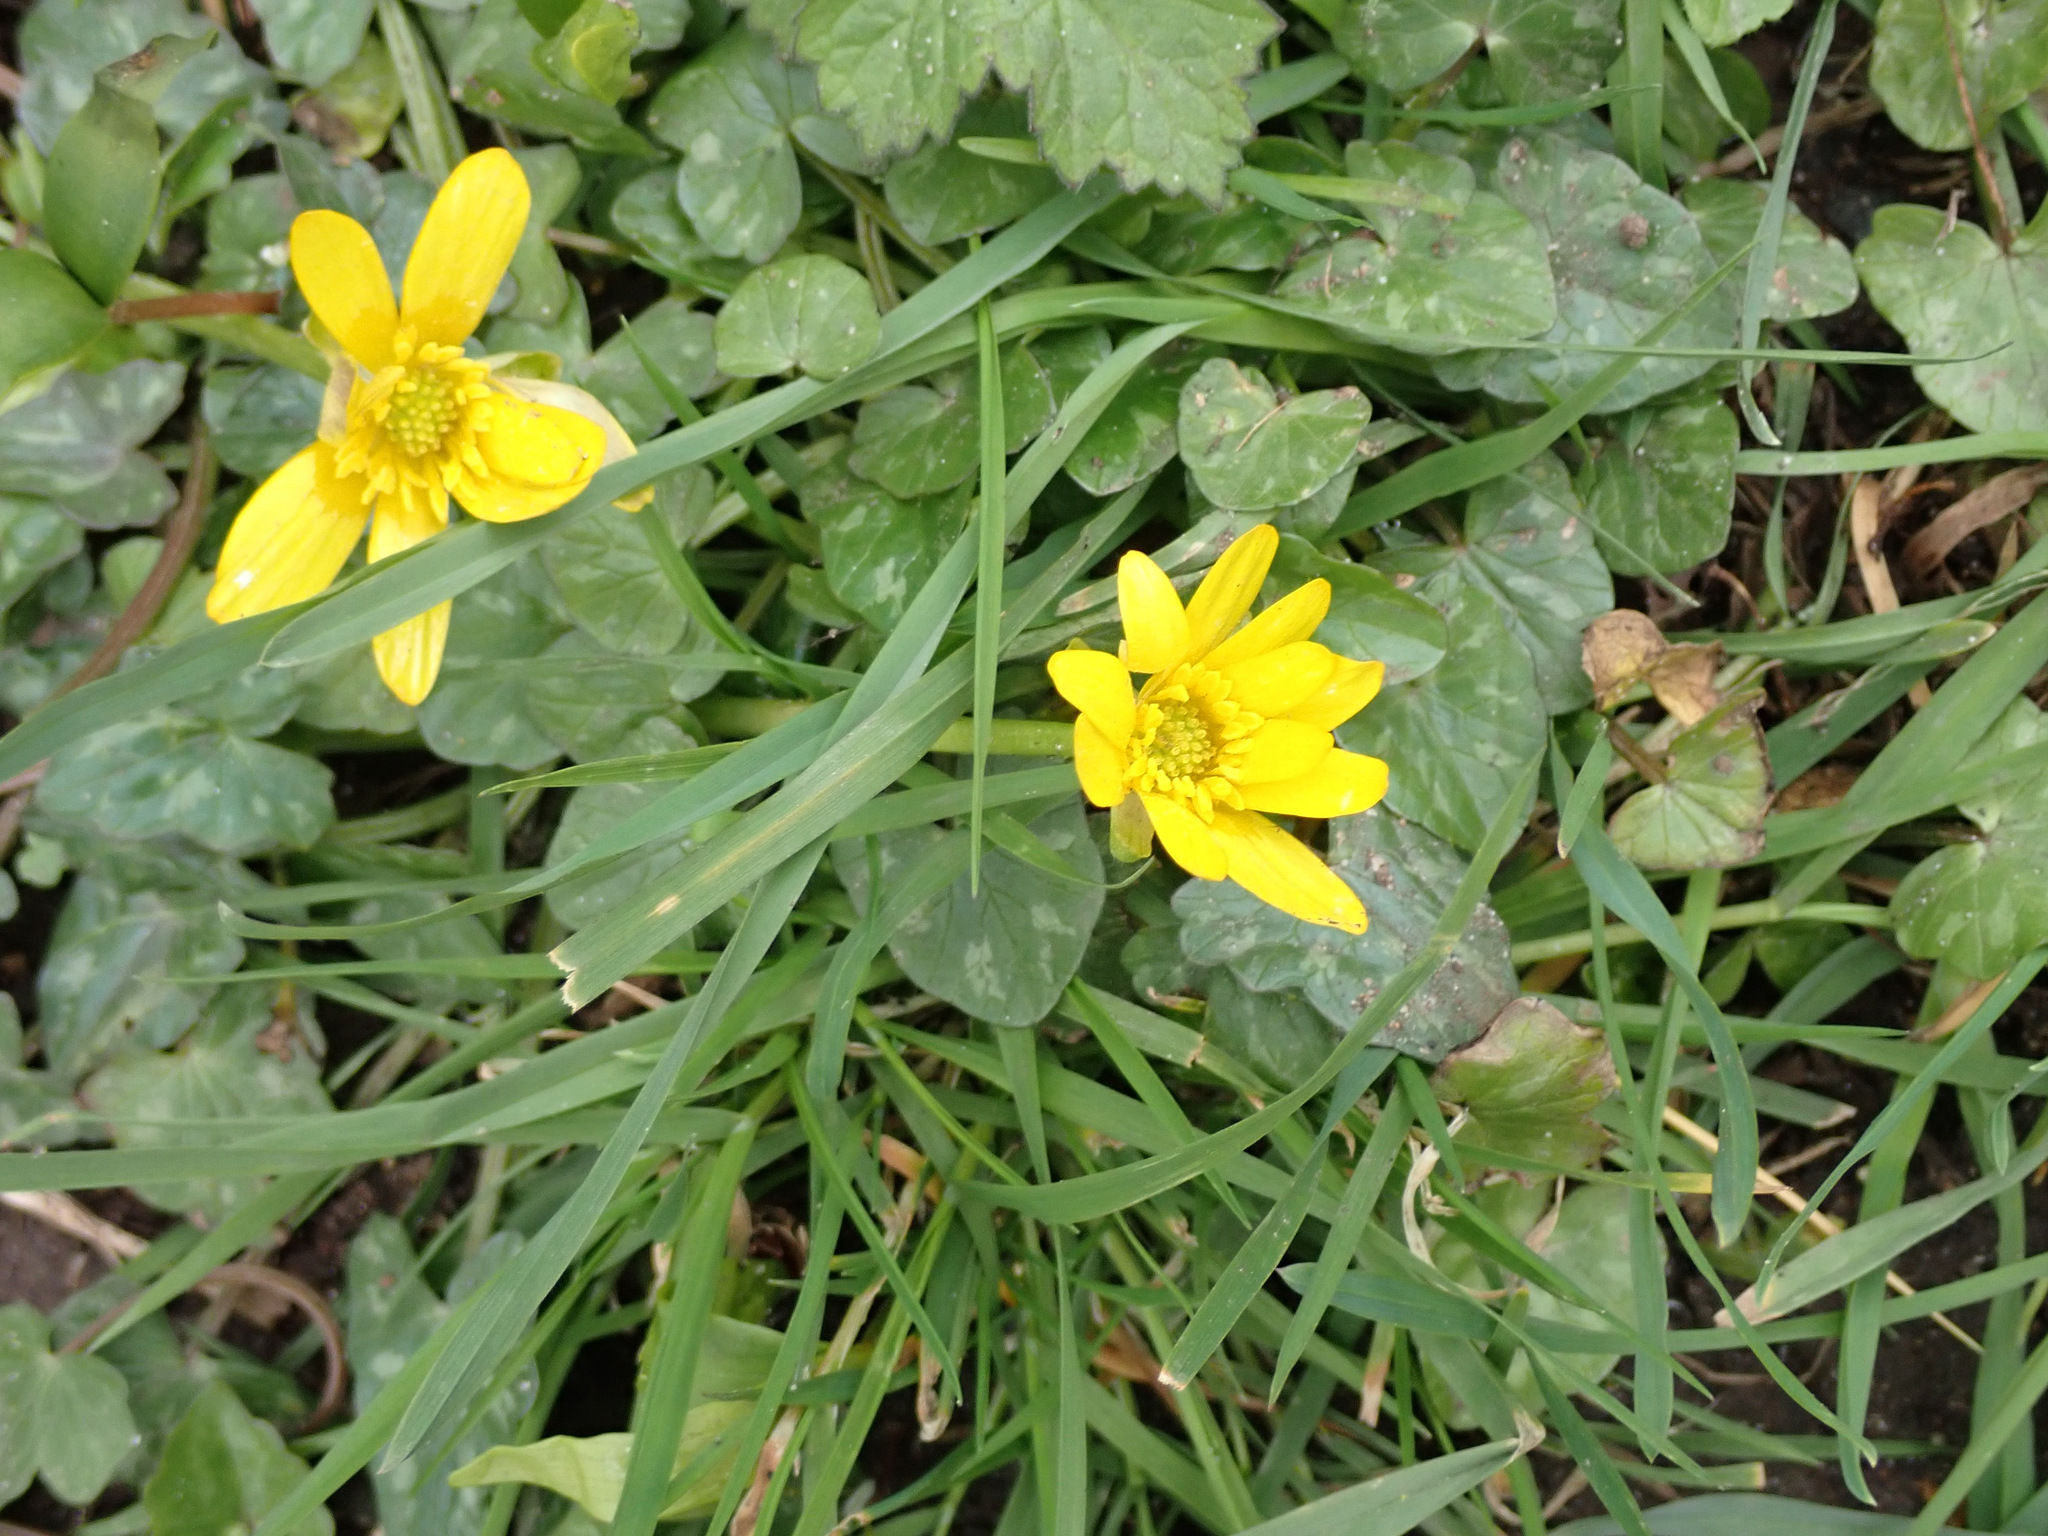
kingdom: Plantae
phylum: Tracheophyta
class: Magnoliopsida
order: Ranunculales
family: Ranunculaceae
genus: Ficaria
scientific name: Ficaria verna
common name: Lesser celandine
